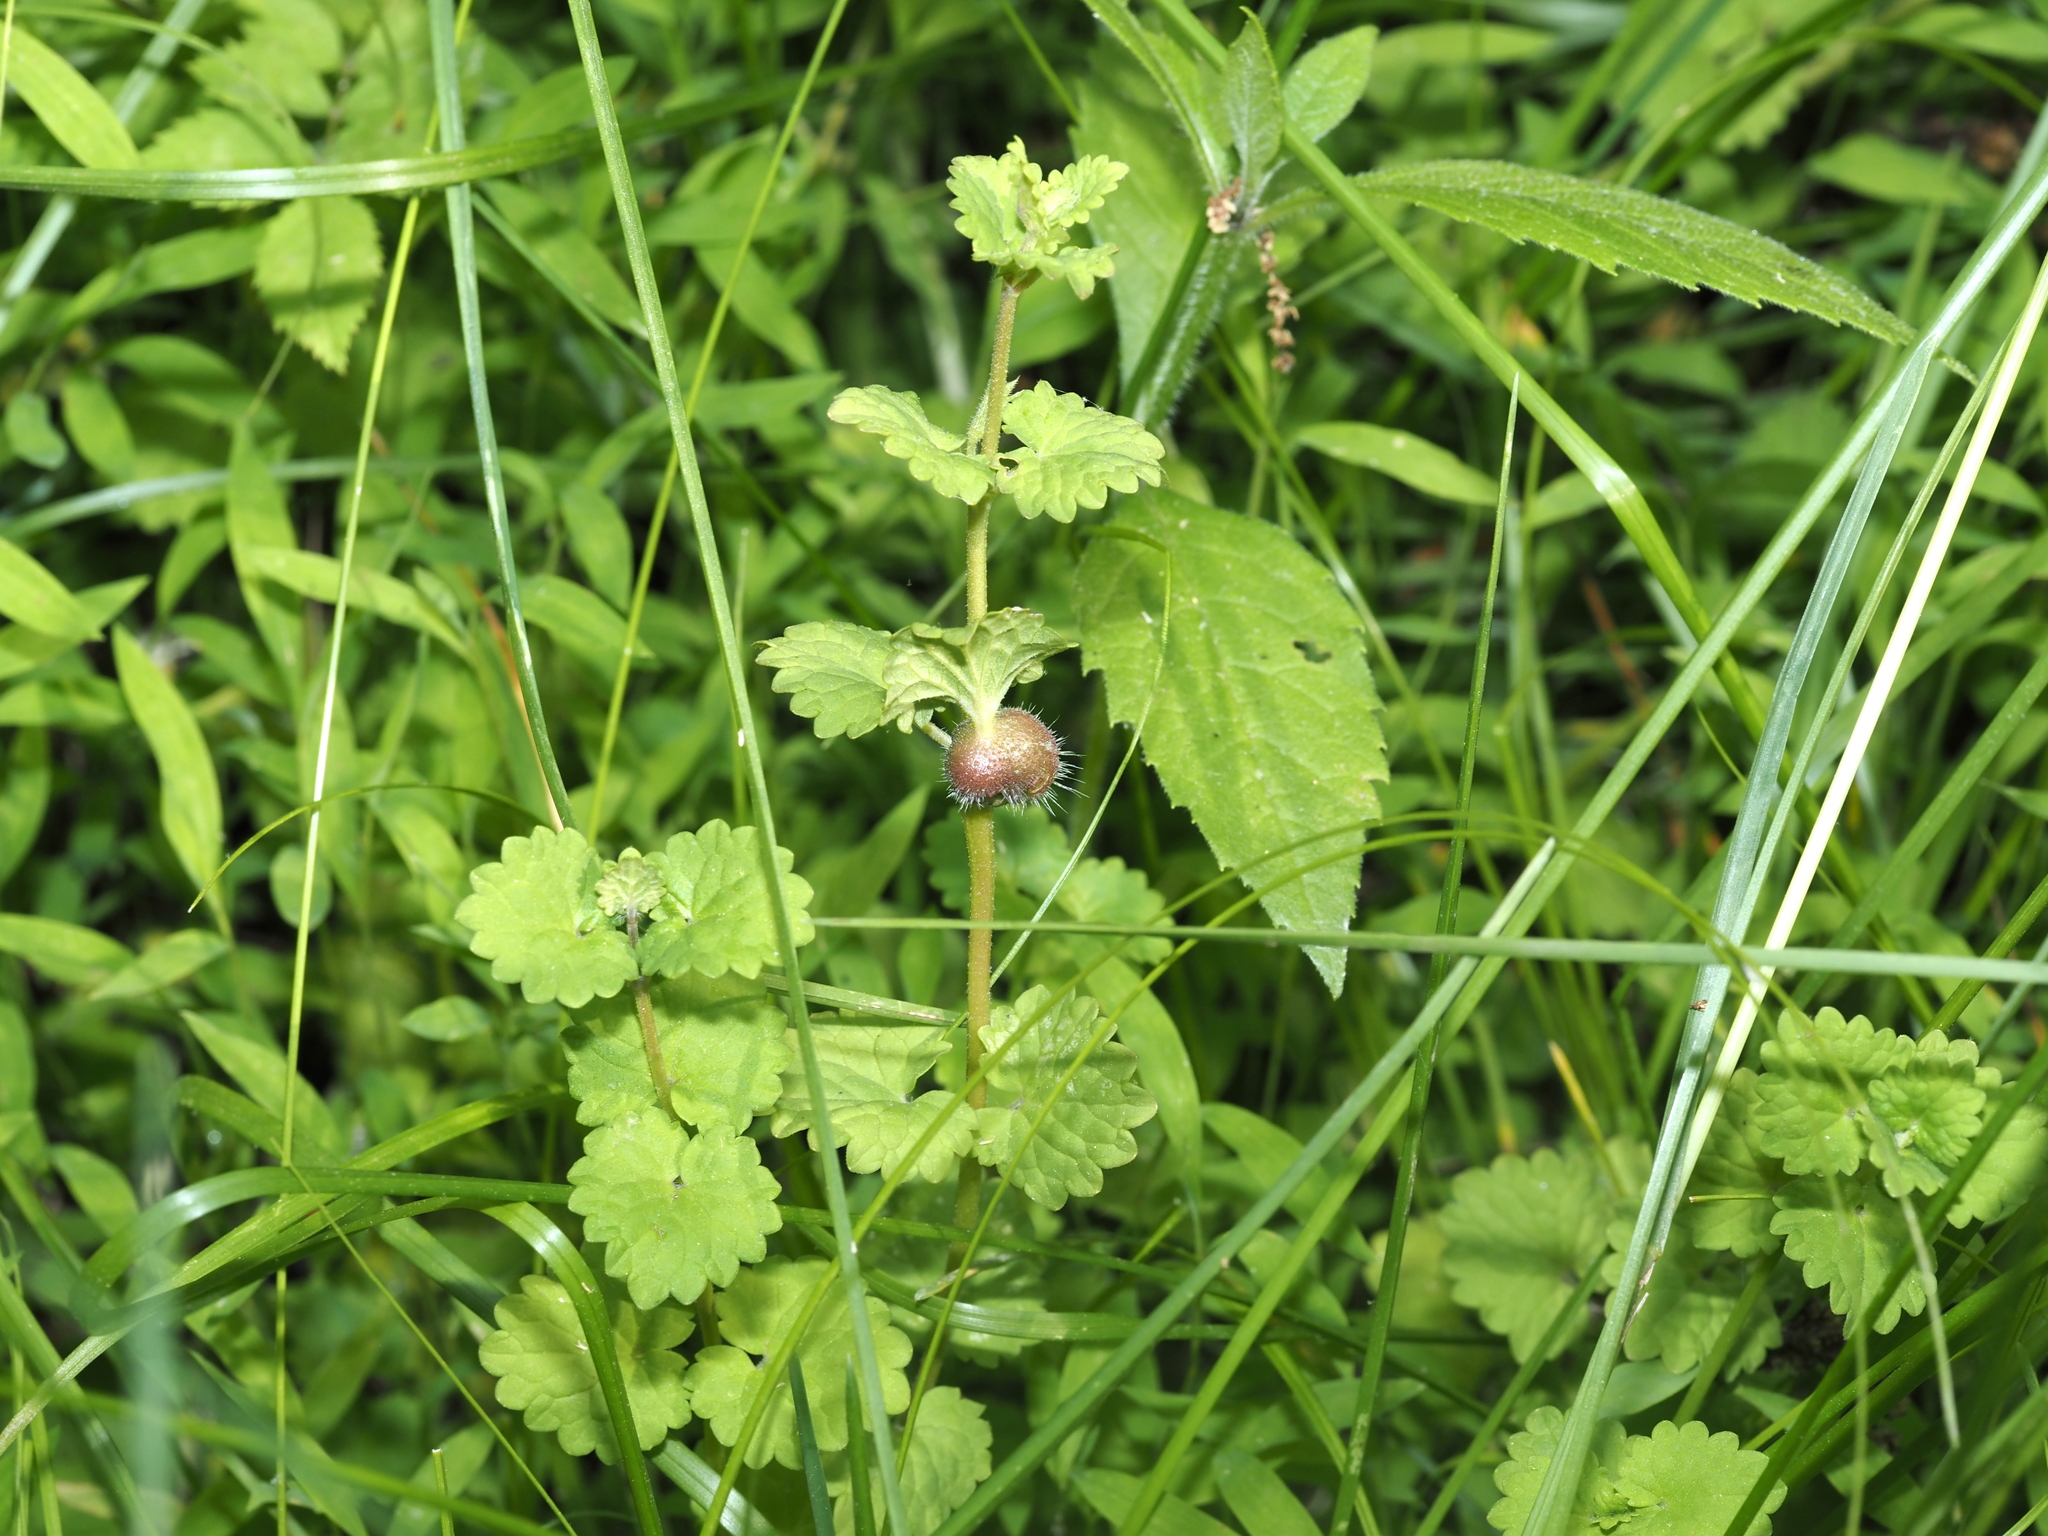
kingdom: Animalia
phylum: Arthropoda
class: Insecta
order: Hymenoptera
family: Cynipidae
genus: Liposthenes
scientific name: Liposthenes glechomae
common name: Gall wasp
